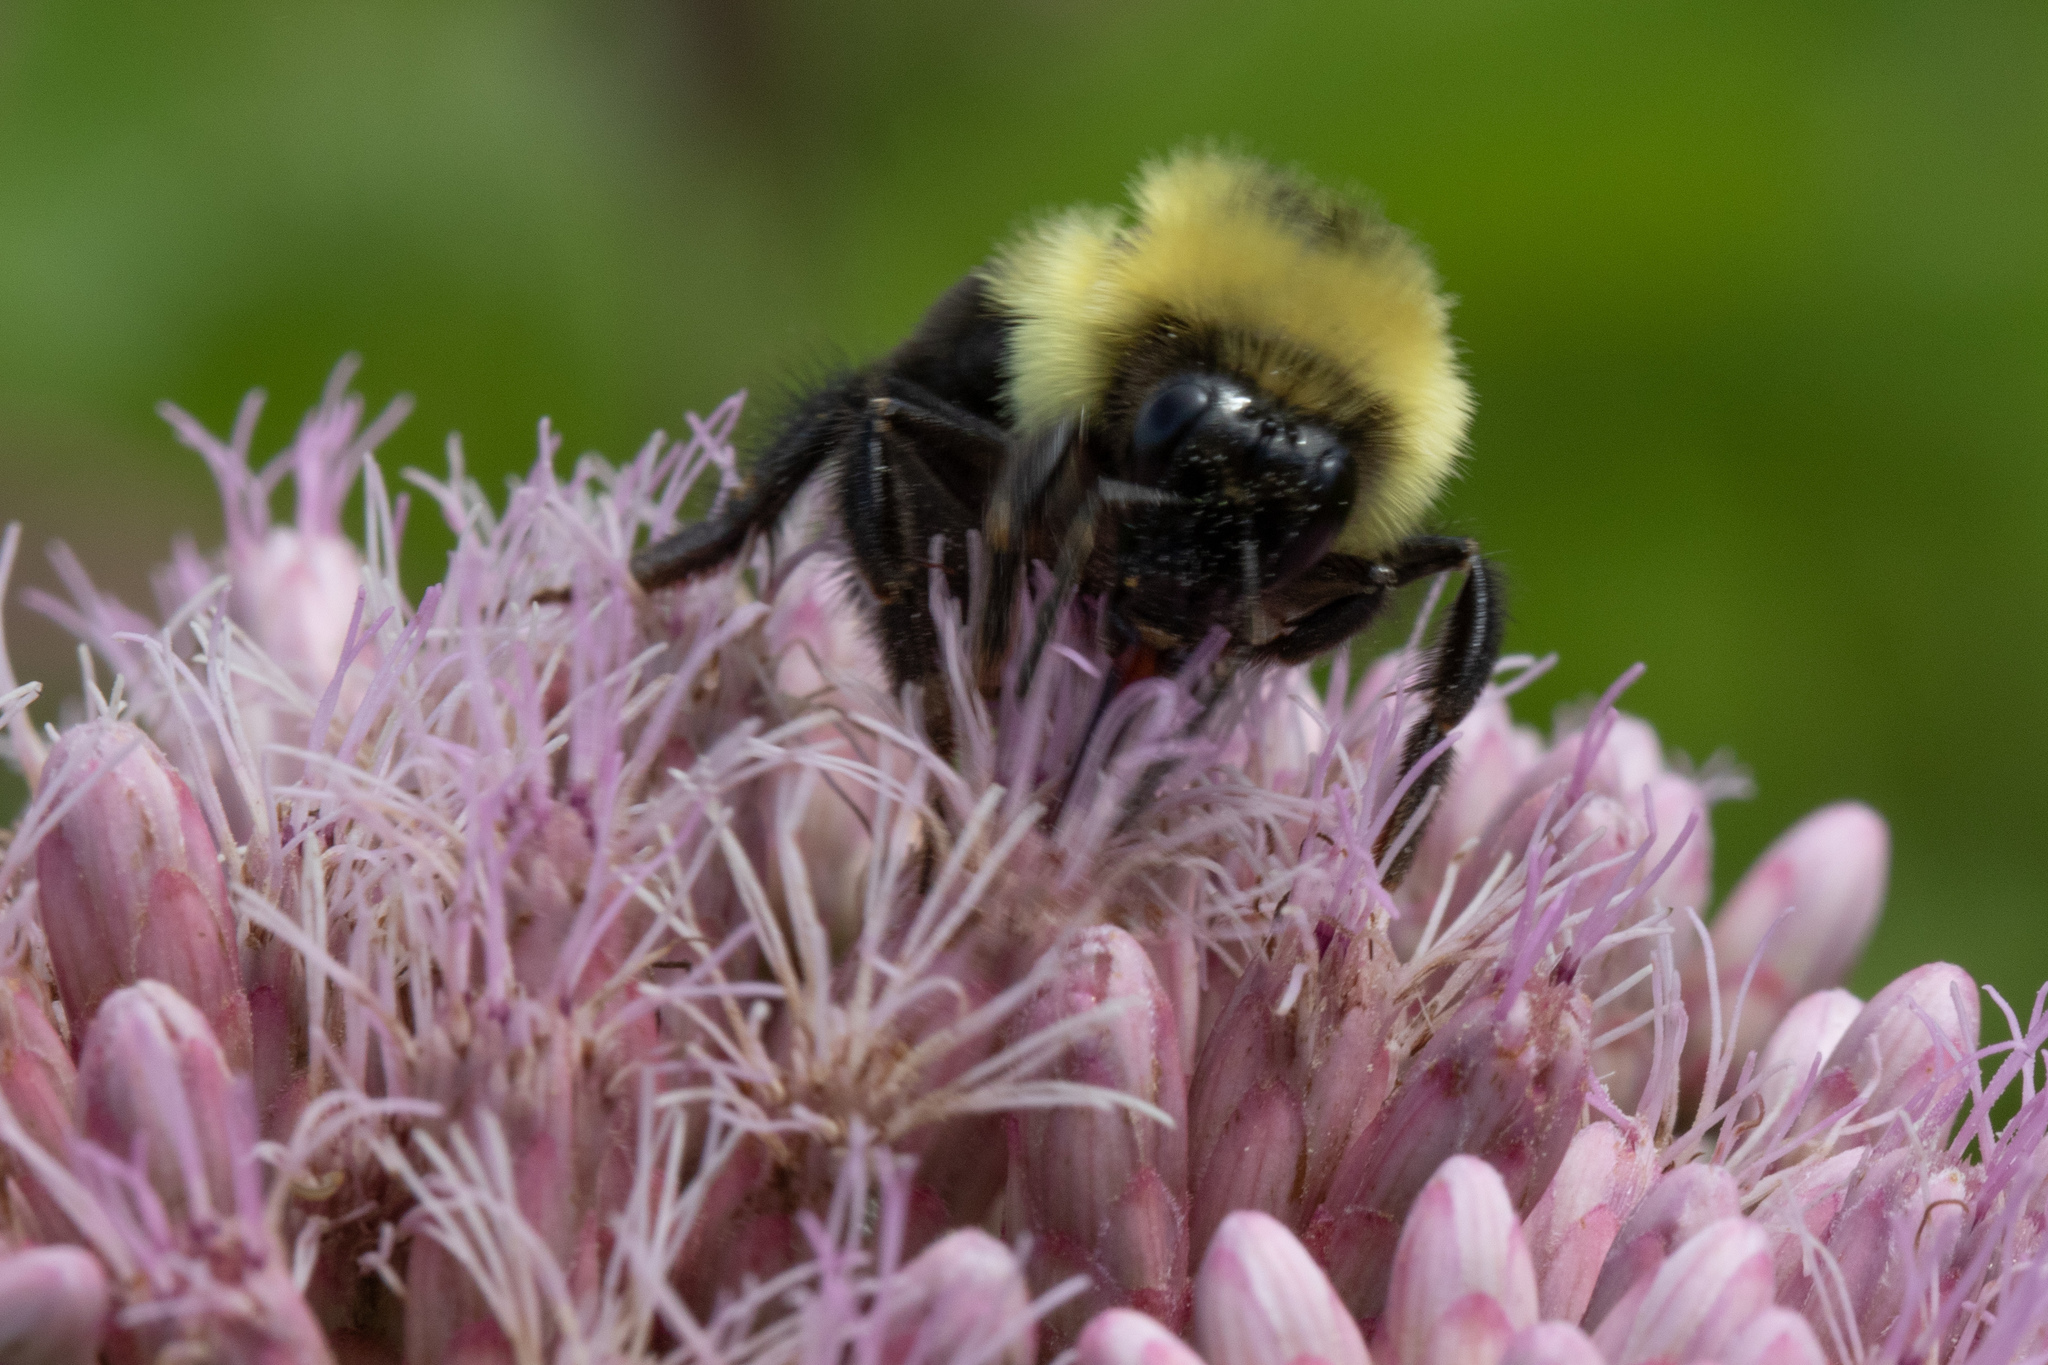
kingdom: Animalia
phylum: Arthropoda
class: Insecta
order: Hymenoptera
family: Apidae
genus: Bombus
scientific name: Bombus bimaculatus
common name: Two-spotted bumble bee
